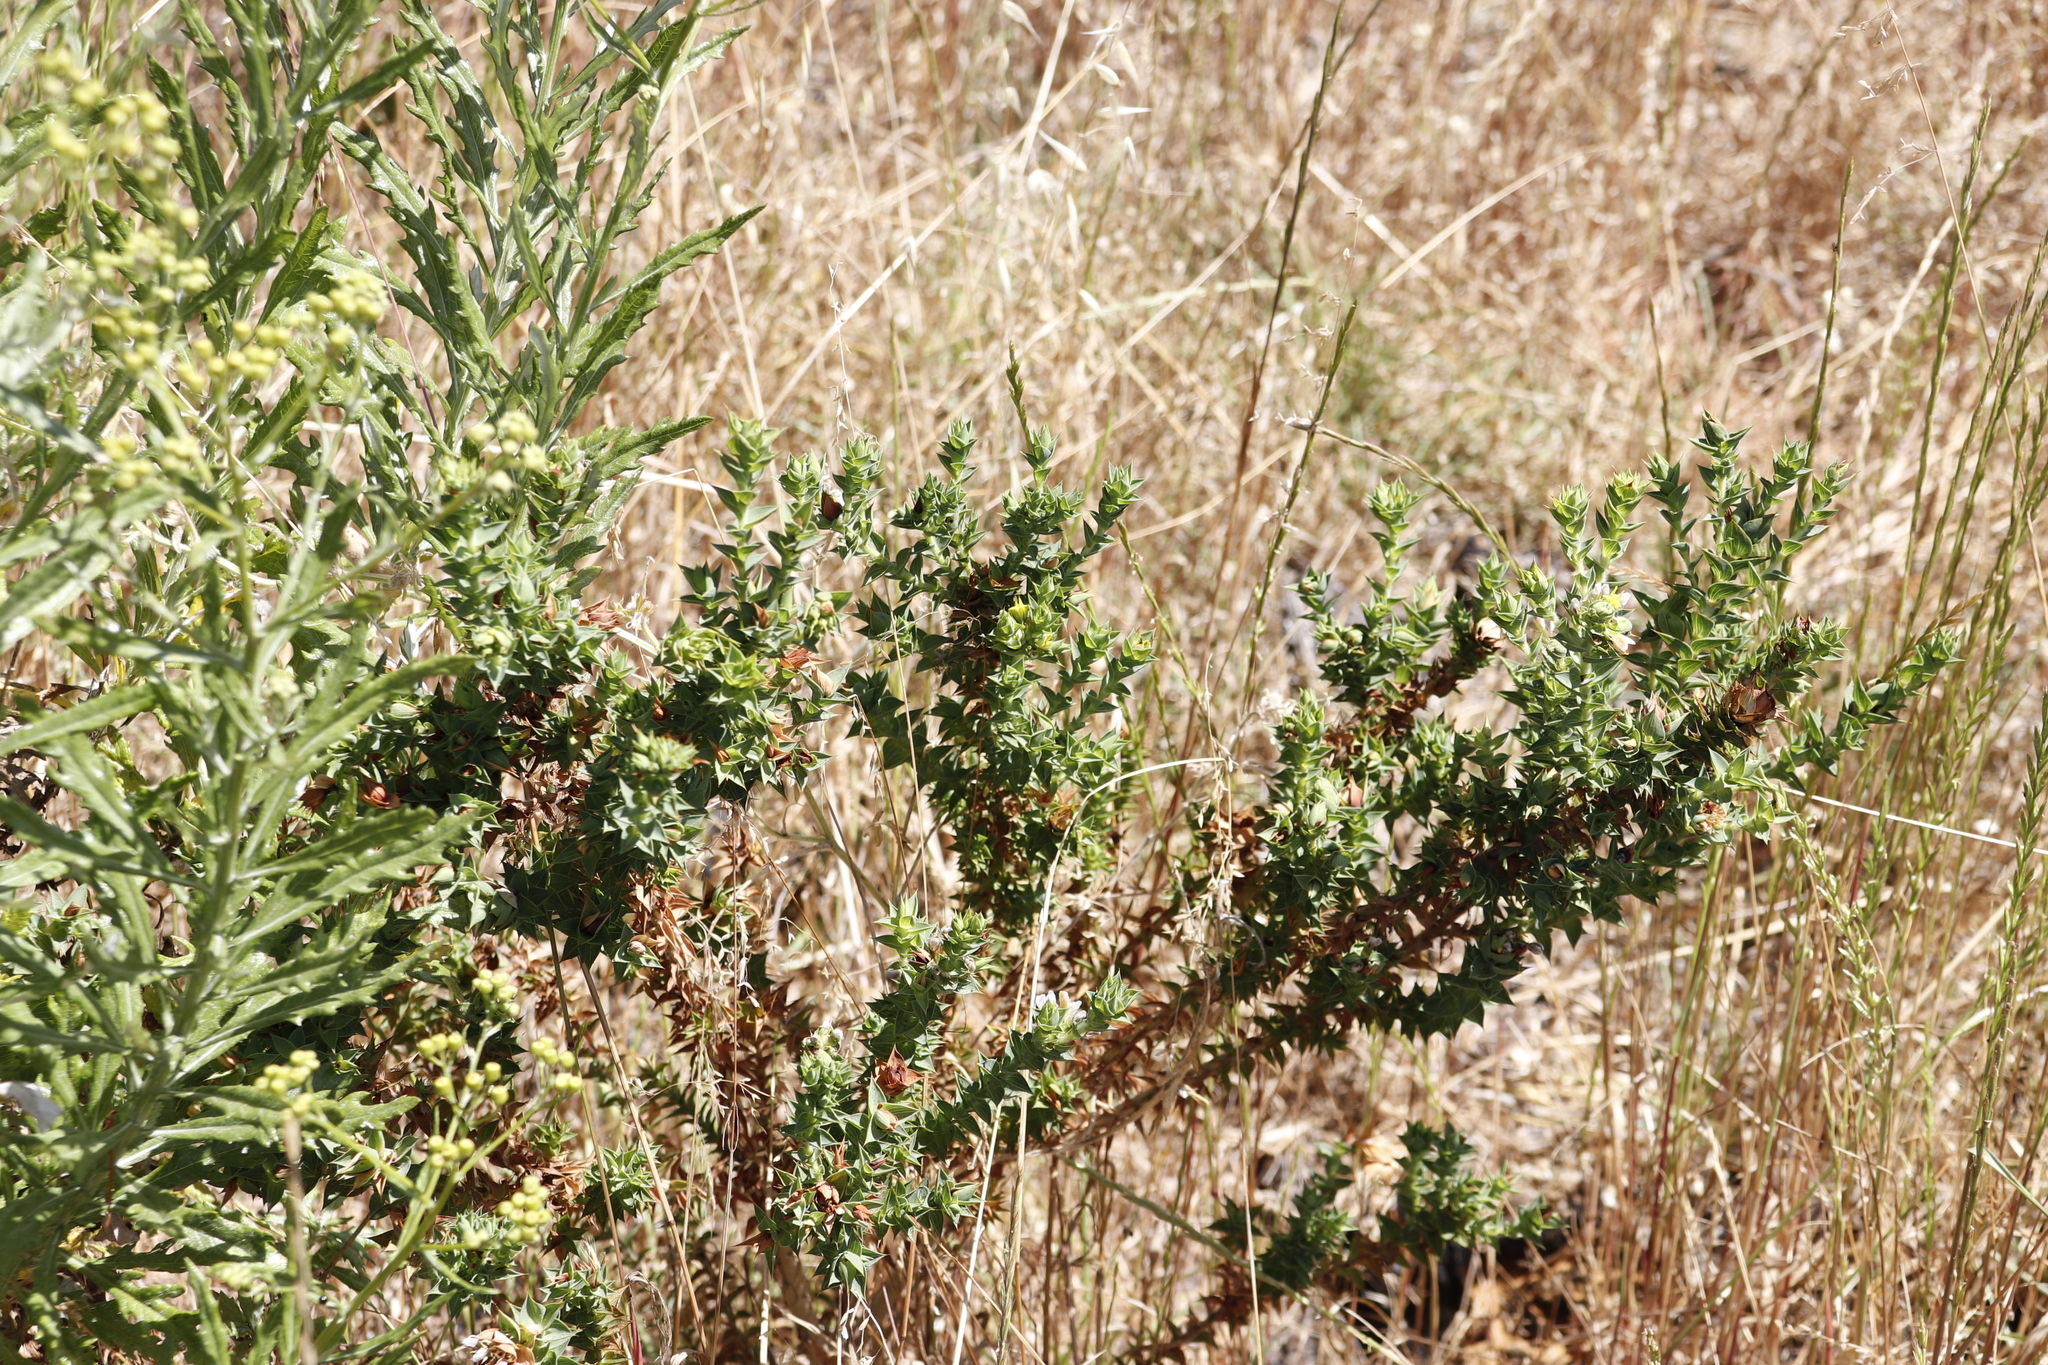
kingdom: Plantae
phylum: Tracheophyta
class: Magnoliopsida
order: Fabales
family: Fabaceae
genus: Aspalathus
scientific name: Aspalathus cordata
